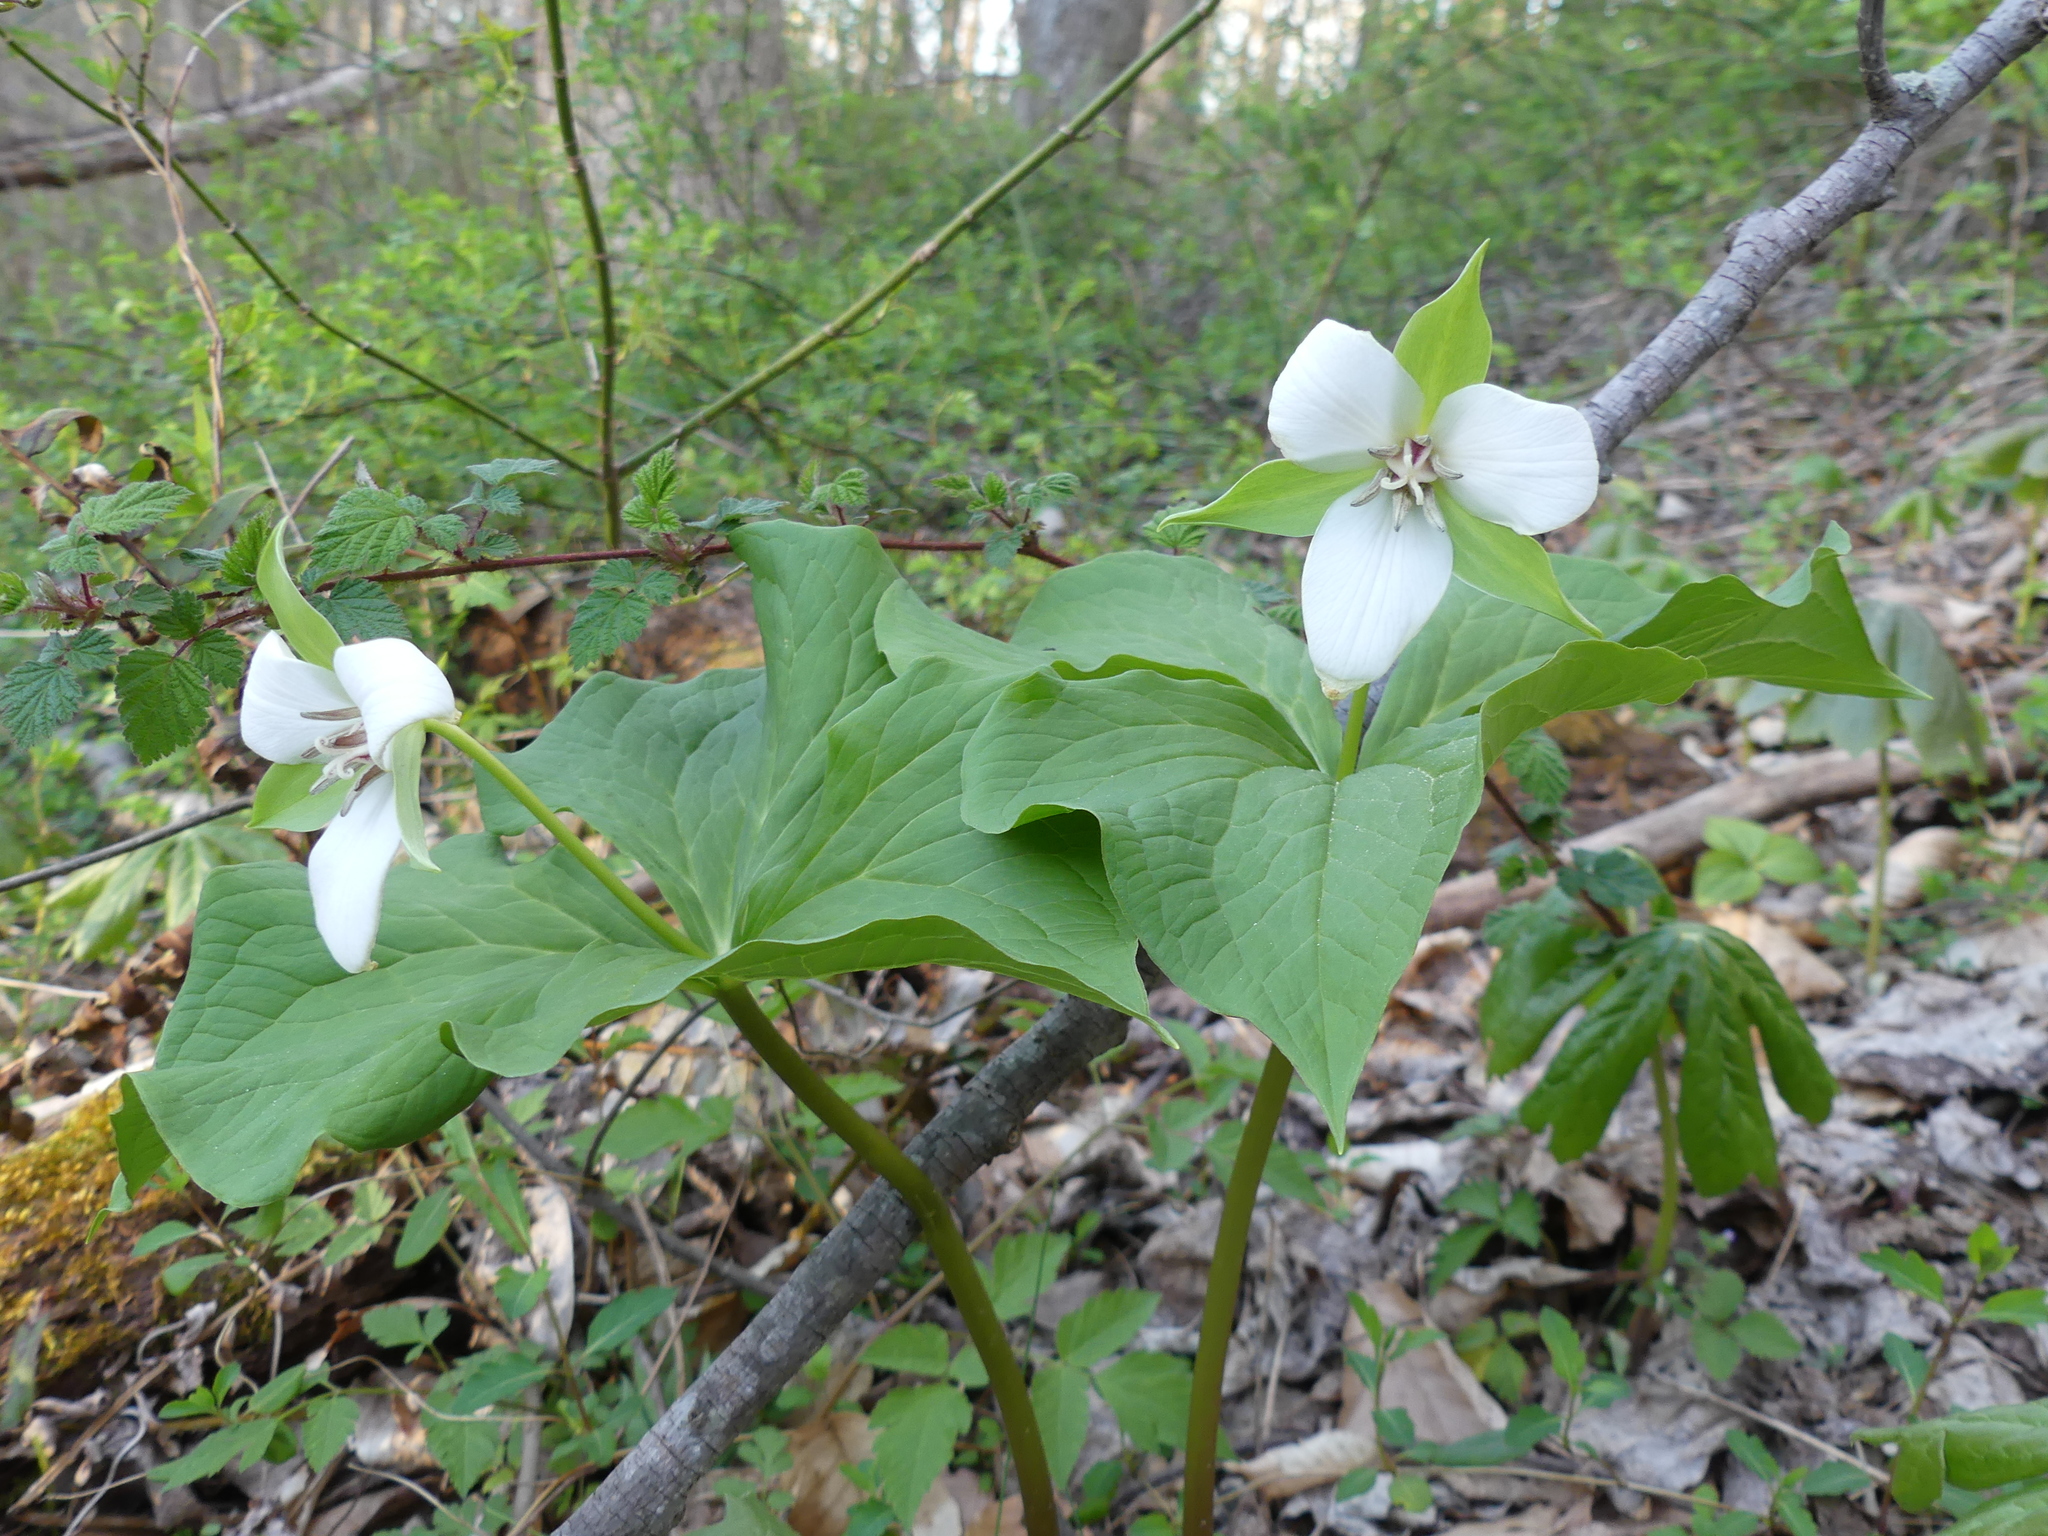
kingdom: Plantae
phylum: Tracheophyta
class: Liliopsida
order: Liliales
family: Melanthiaceae
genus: Trillium
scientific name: Trillium flexipes
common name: Drooping trillium
